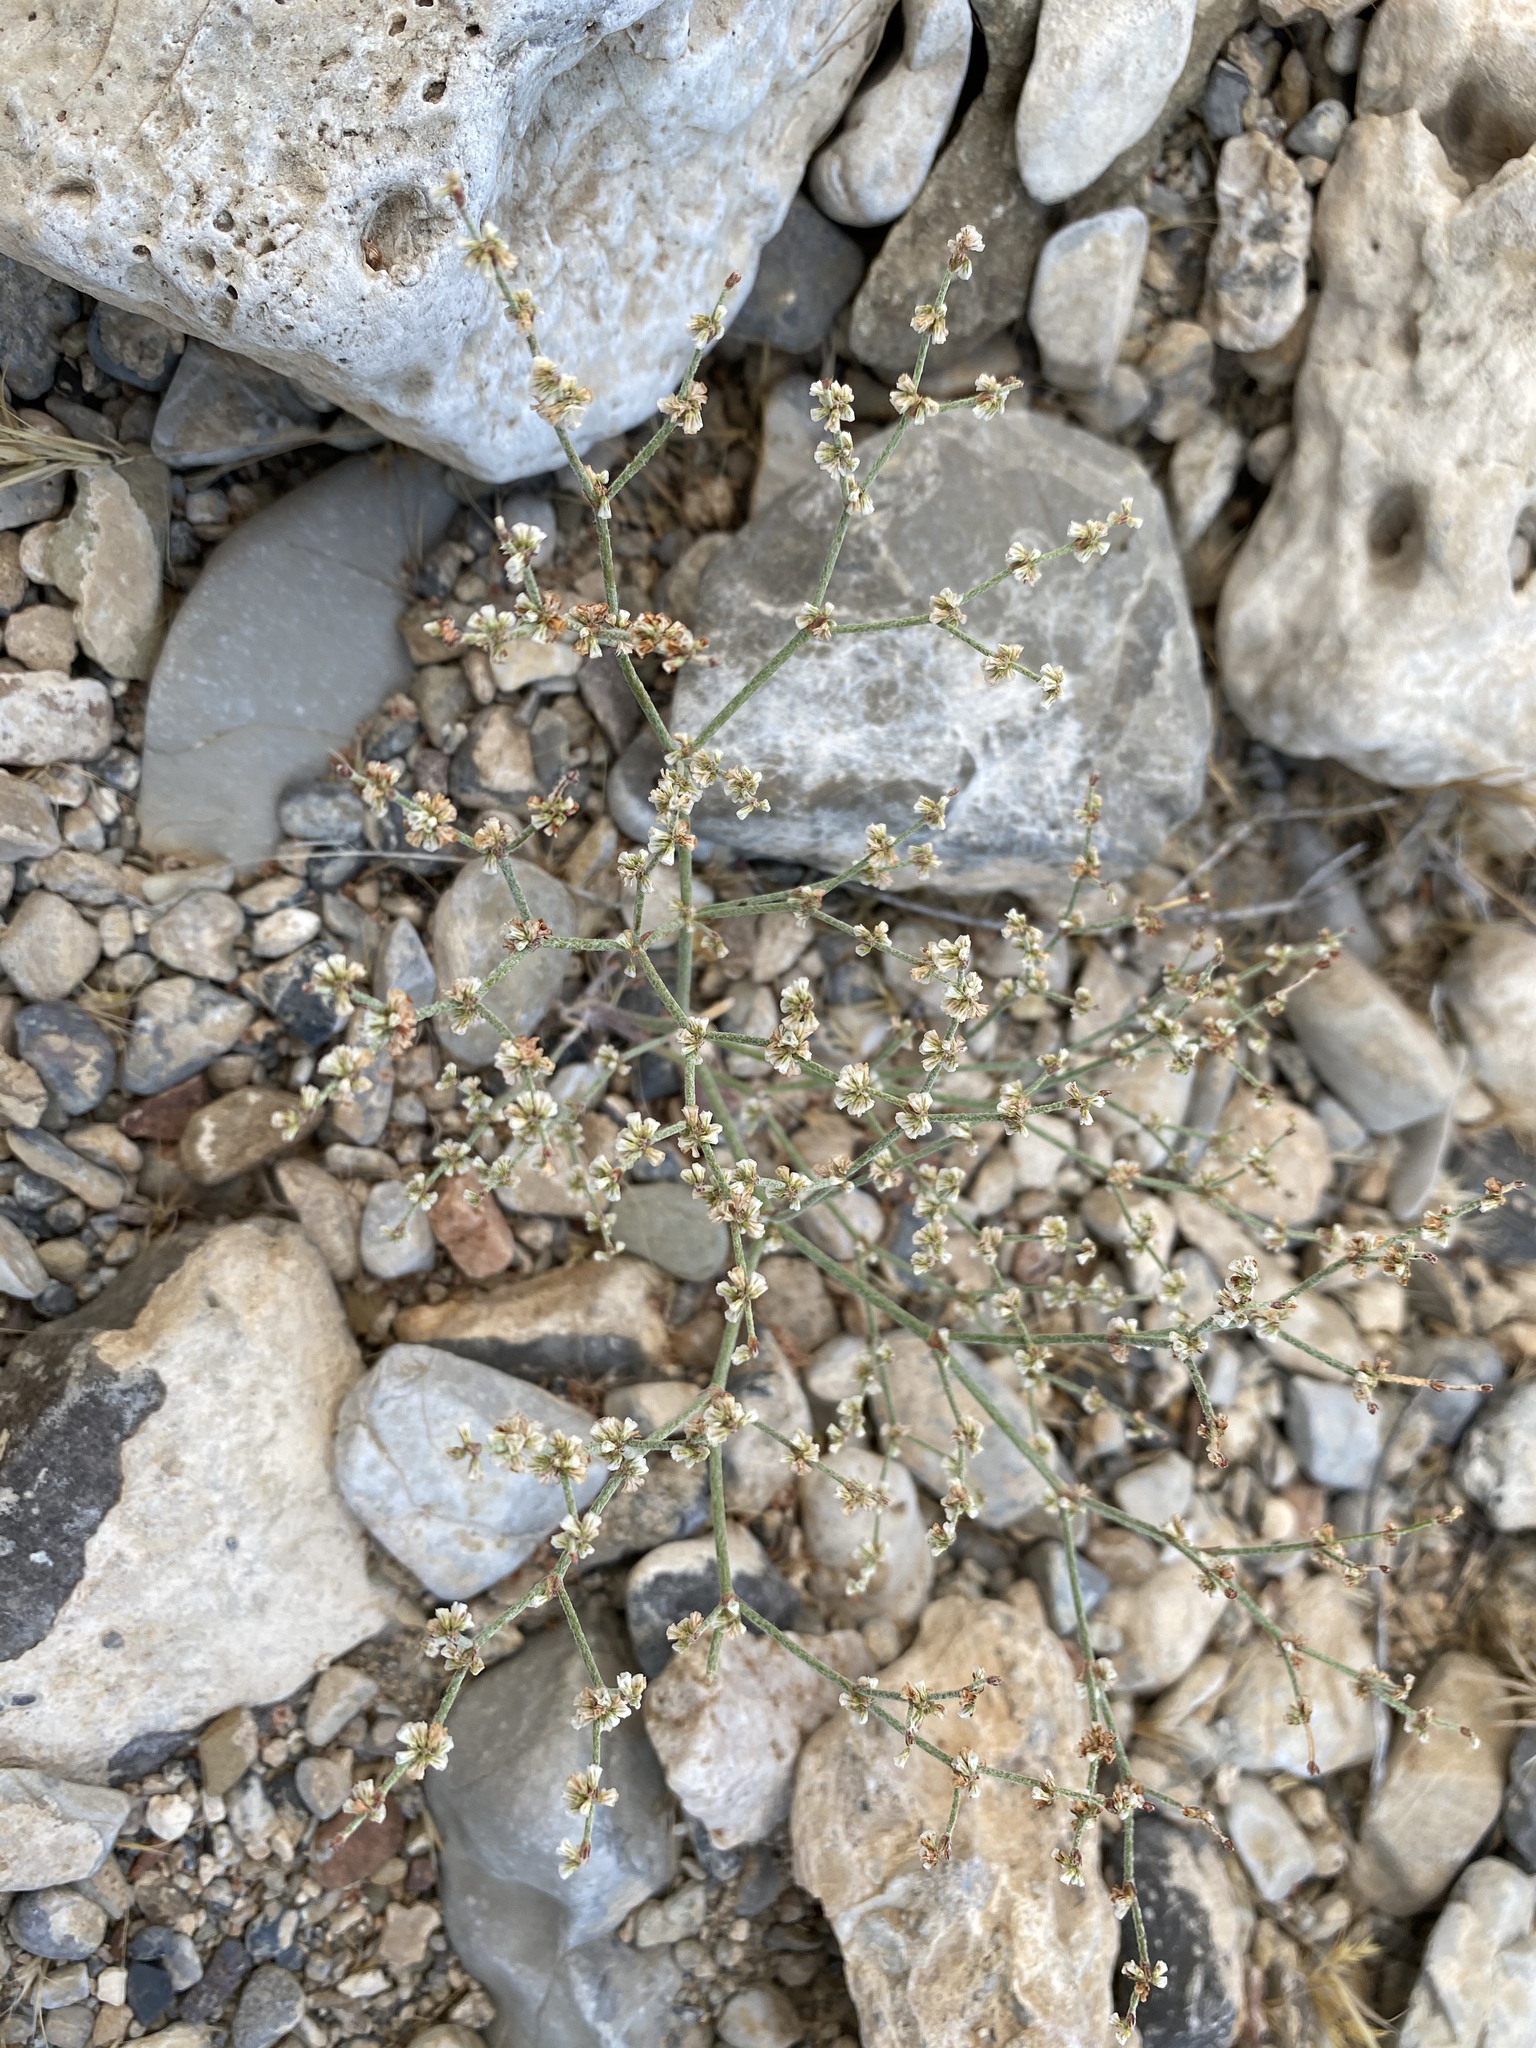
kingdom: Plantae
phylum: Tracheophyta
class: Magnoliopsida
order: Caryophyllales
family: Polygonaceae
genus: Eriogonum
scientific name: Eriogonum palmerianum
